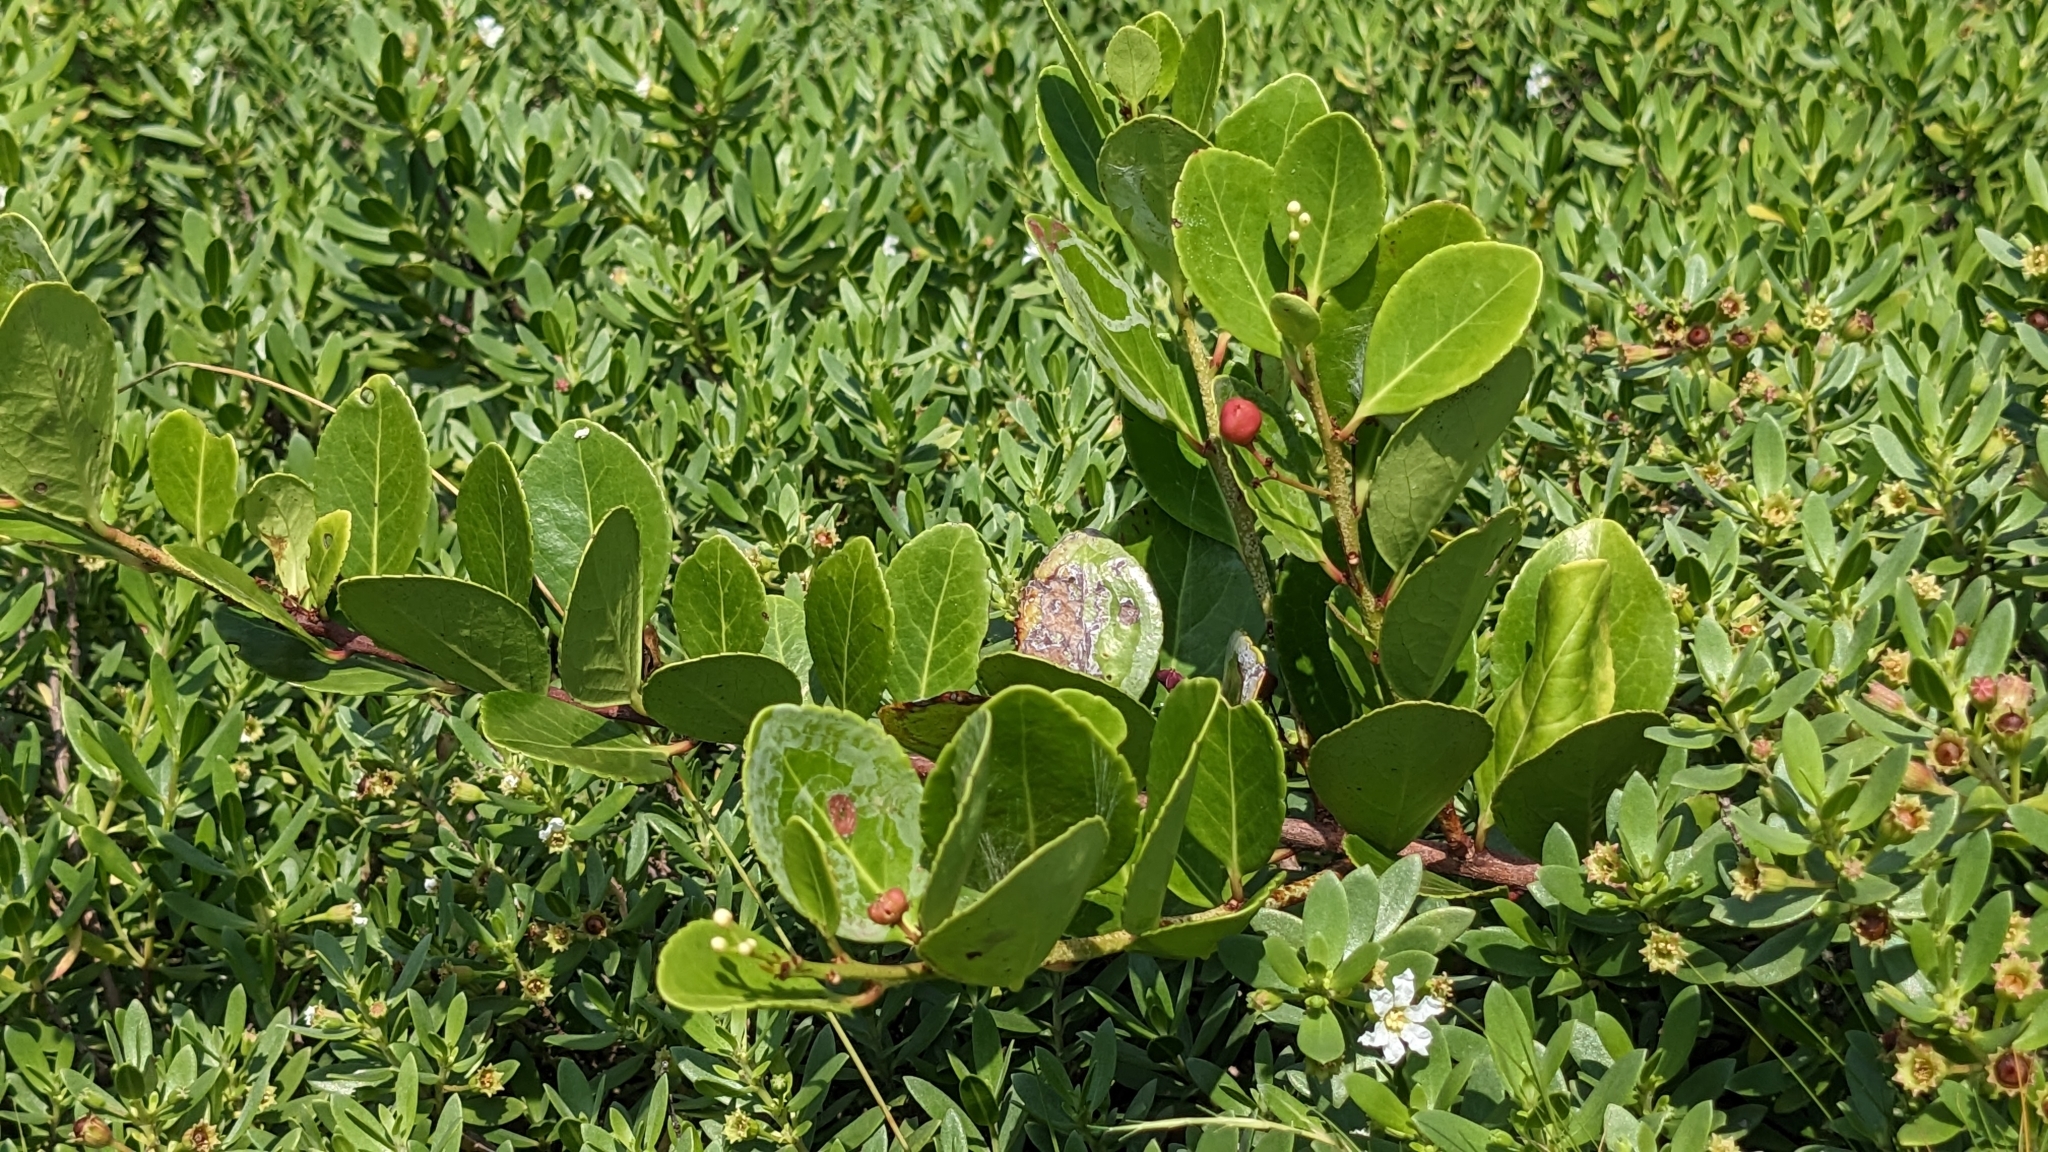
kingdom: Plantae
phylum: Tracheophyta
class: Magnoliopsida
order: Celastrales
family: Celastraceae
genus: Gymnosporia
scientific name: Gymnosporia emarginata
